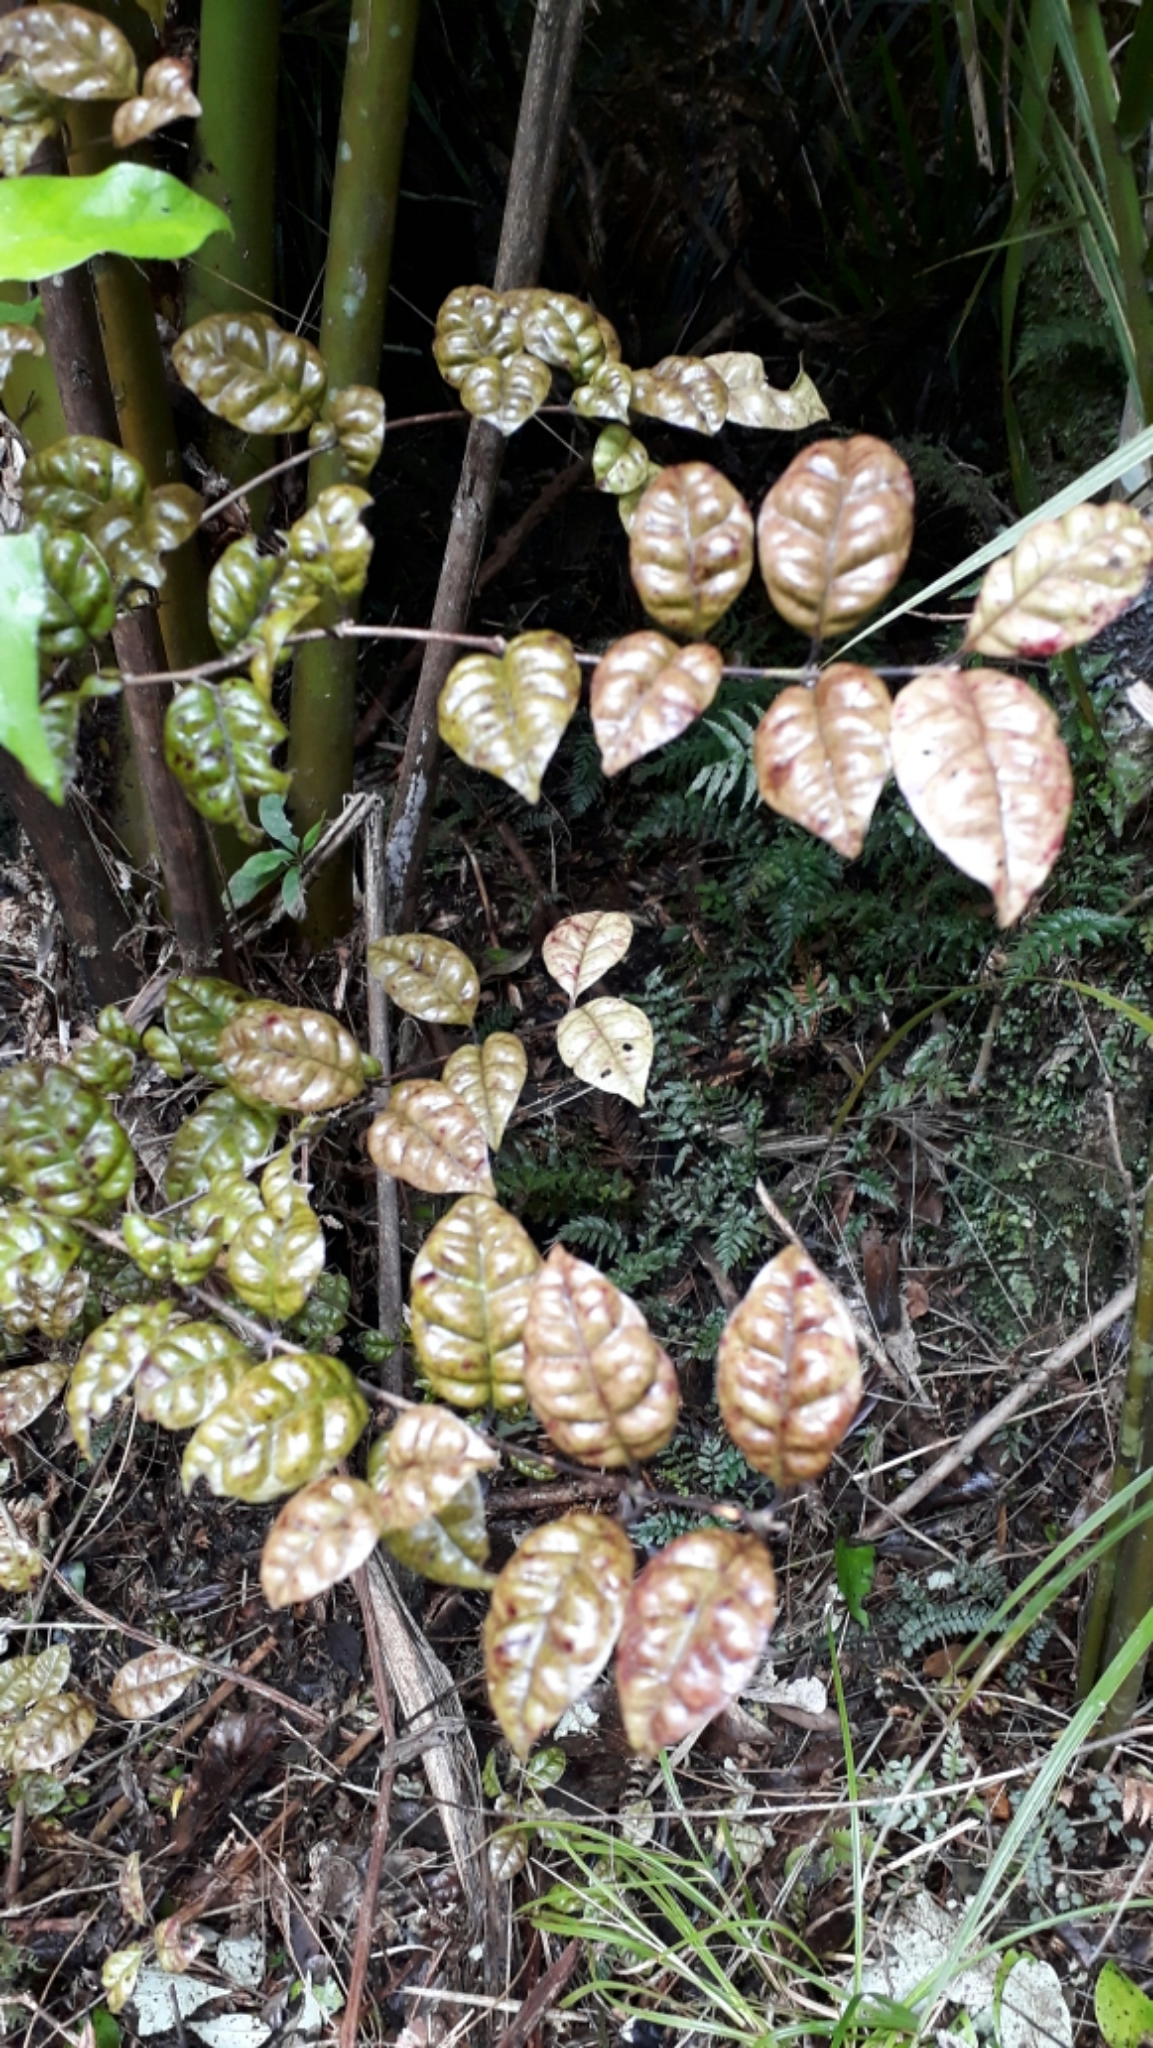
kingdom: Plantae
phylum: Tracheophyta
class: Magnoliopsida
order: Myrtales
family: Myrtaceae
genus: Lophomyrtus
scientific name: Lophomyrtus bullata
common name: Rama rama
